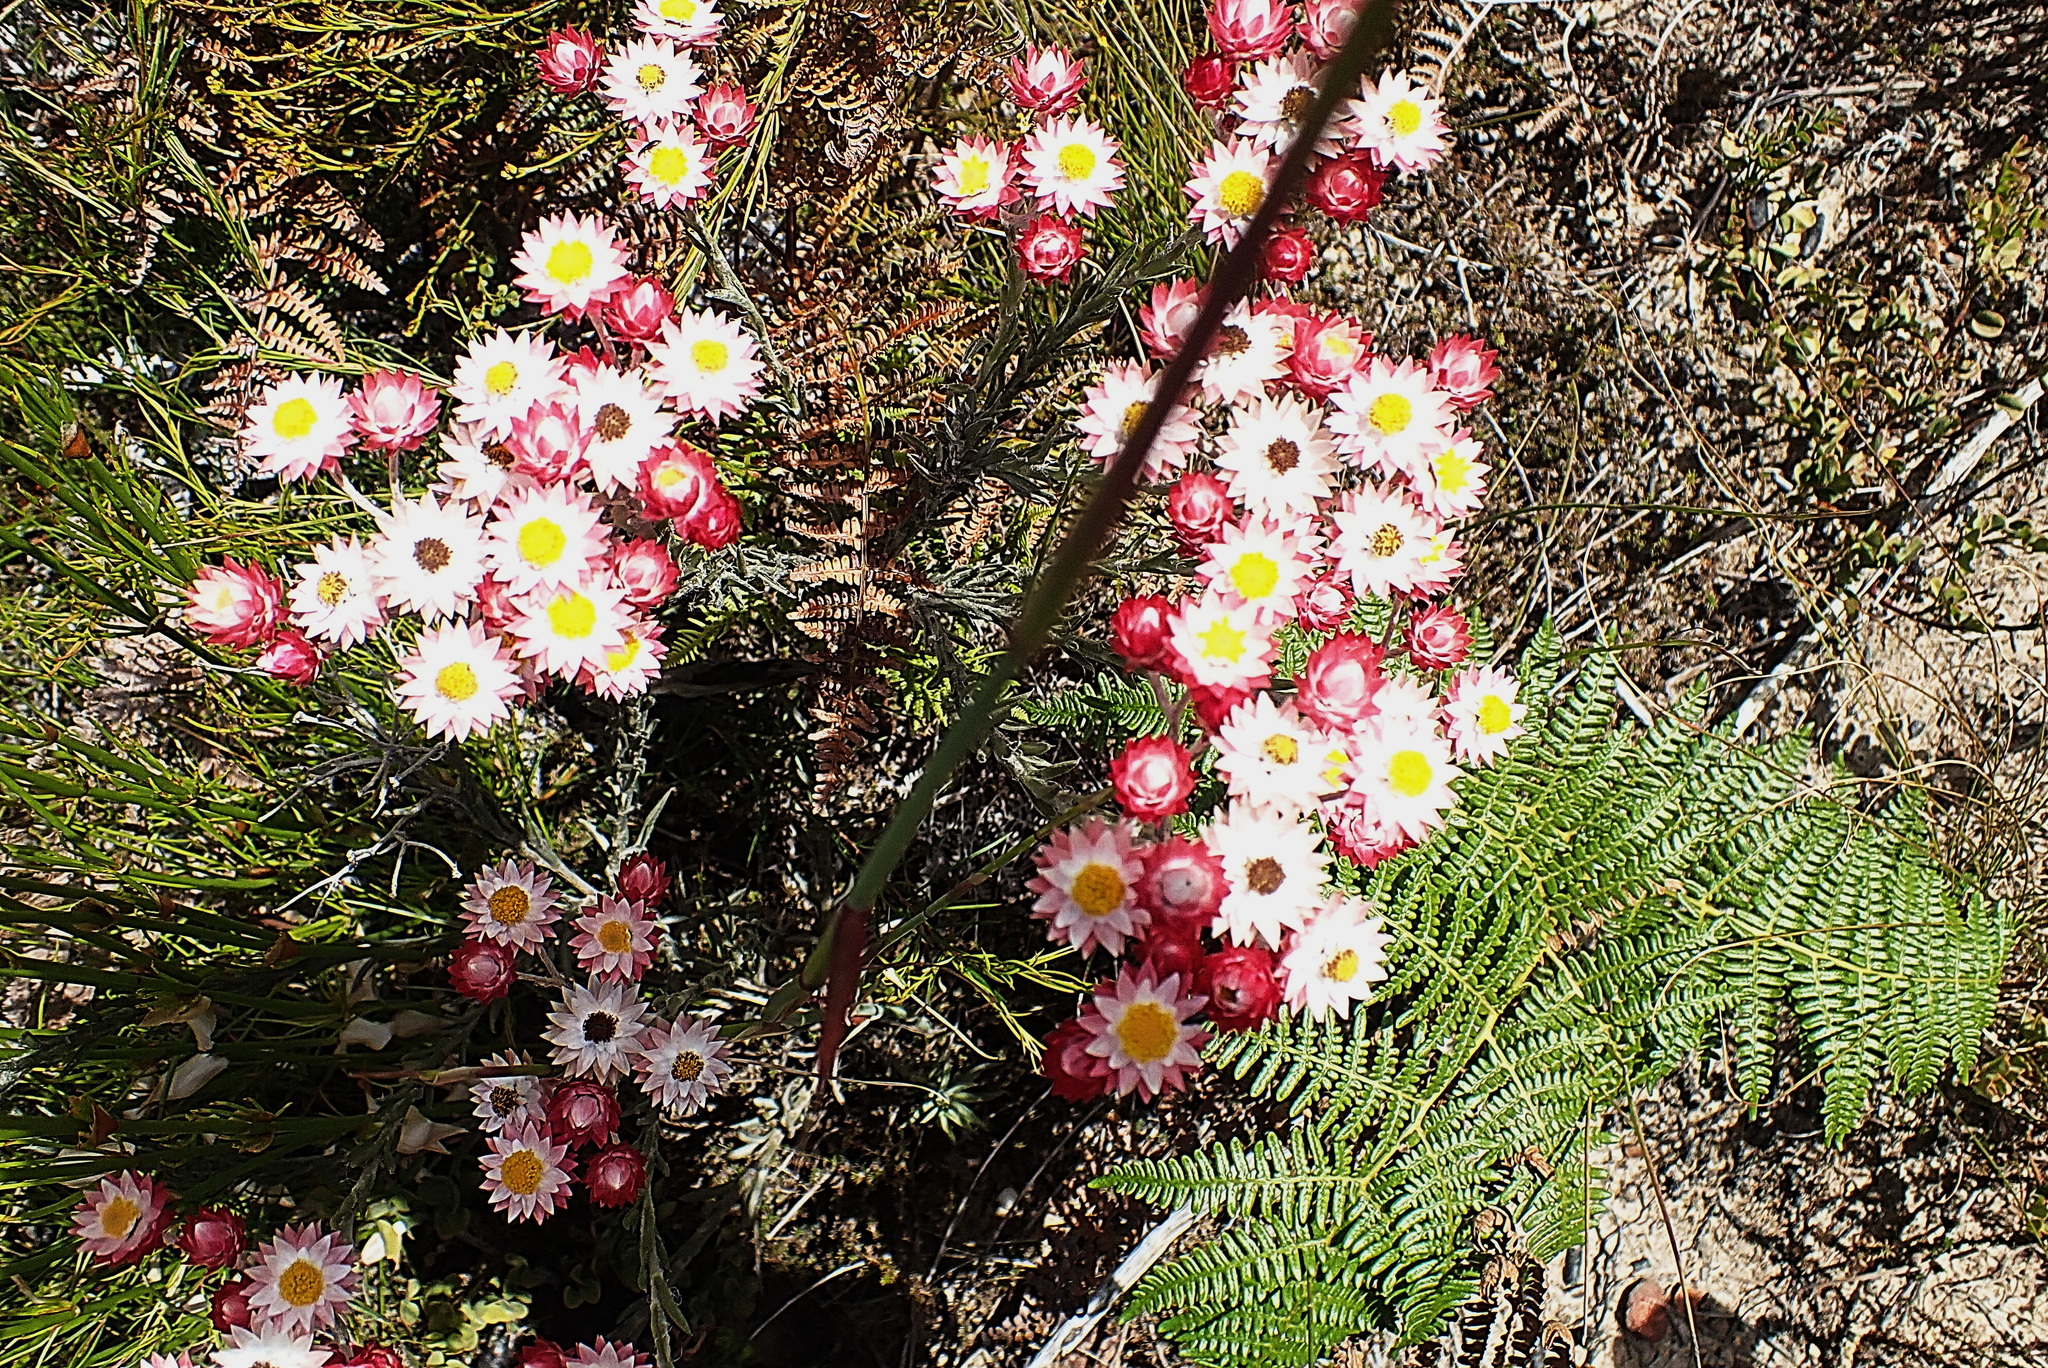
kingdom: Plantae
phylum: Tracheophyta
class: Magnoliopsida
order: Asterales
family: Asteraceae
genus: Achyranthemum
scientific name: Achyranthemum paniculatum
